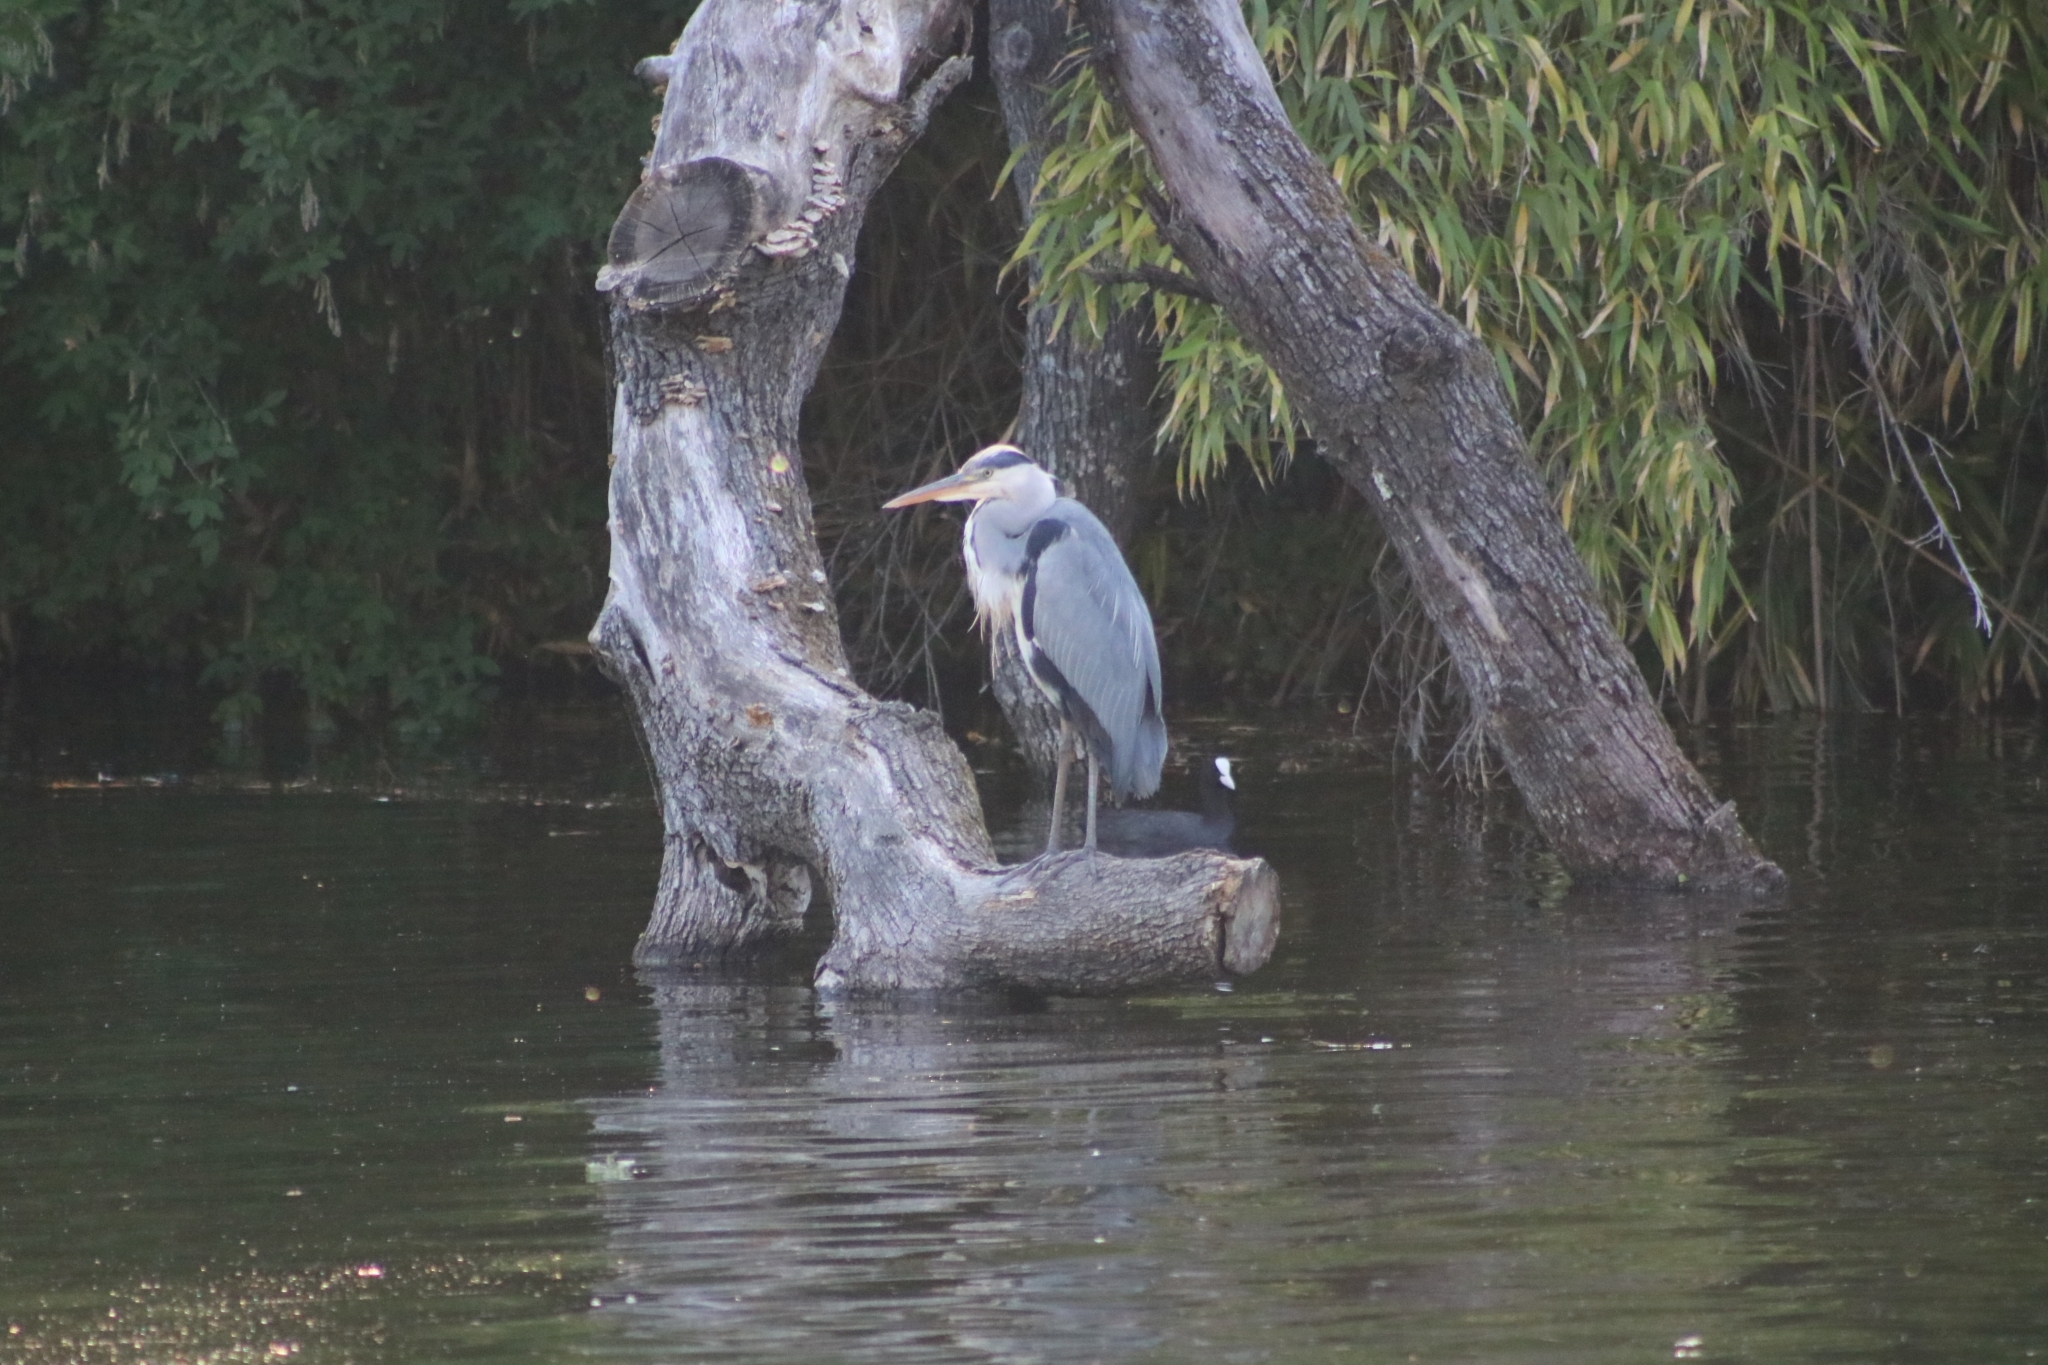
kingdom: Animalia
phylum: Chordata
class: Aves
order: Pelecaniformes
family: Ardeidae
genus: Ardea
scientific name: Ardea cinerea
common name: Grey heron
